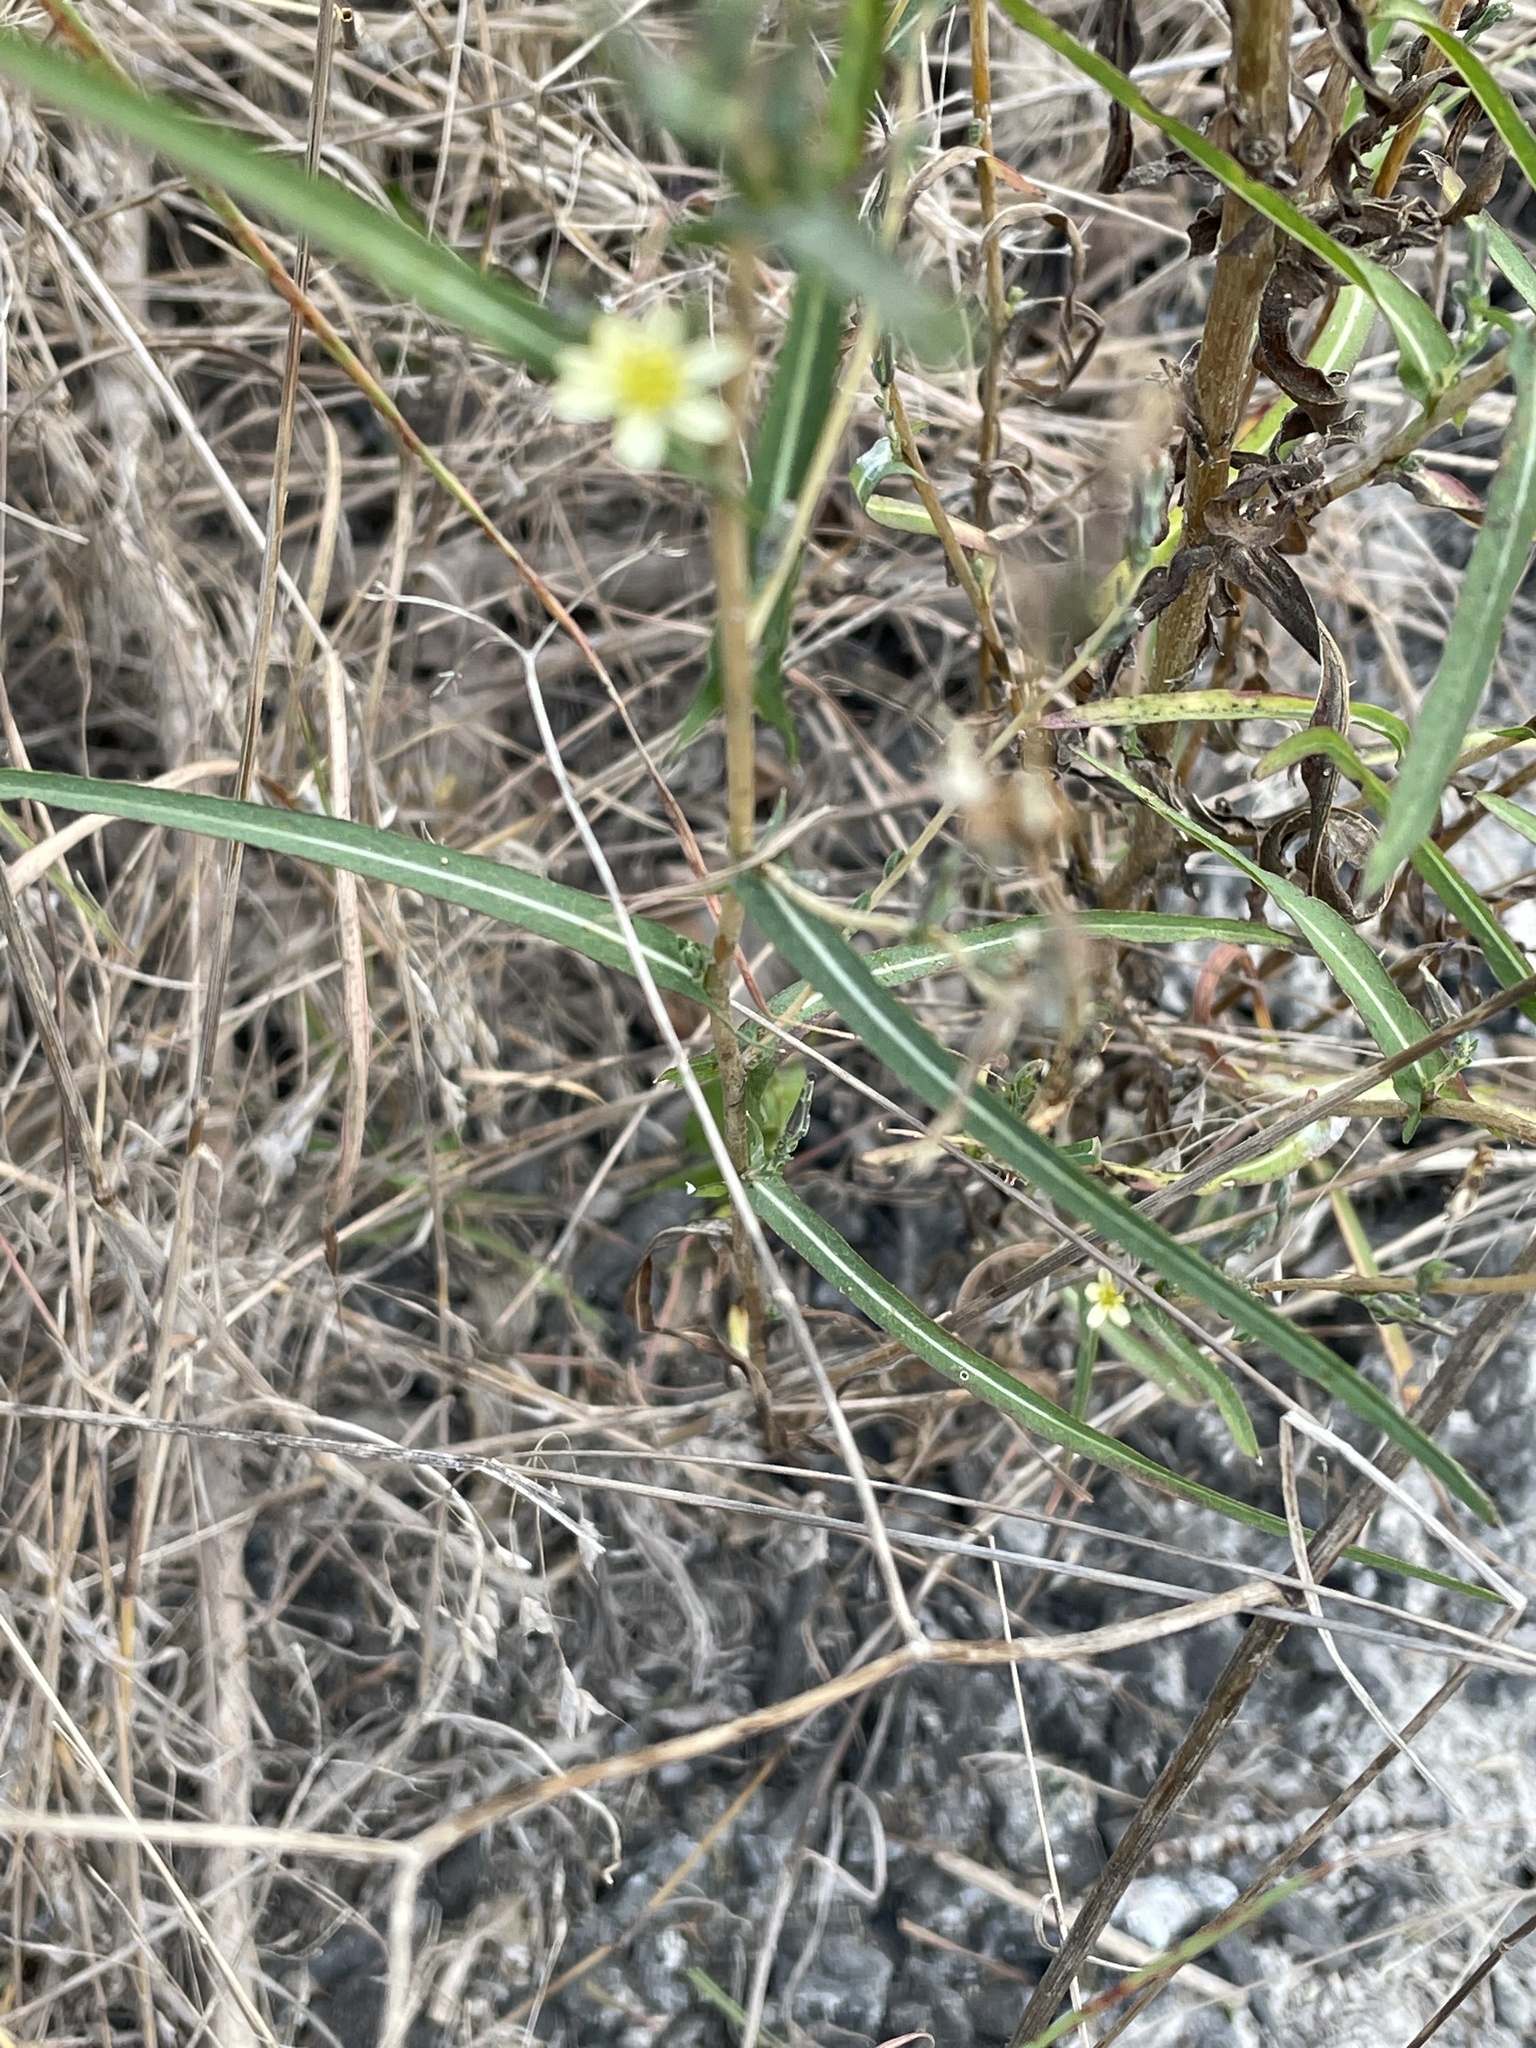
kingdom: Plantae
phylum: Tracheophyta
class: Magnoliopsida
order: Asterales
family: Asteraceae
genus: Lactuca
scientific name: Lactuca saligna
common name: Wild lettuce
